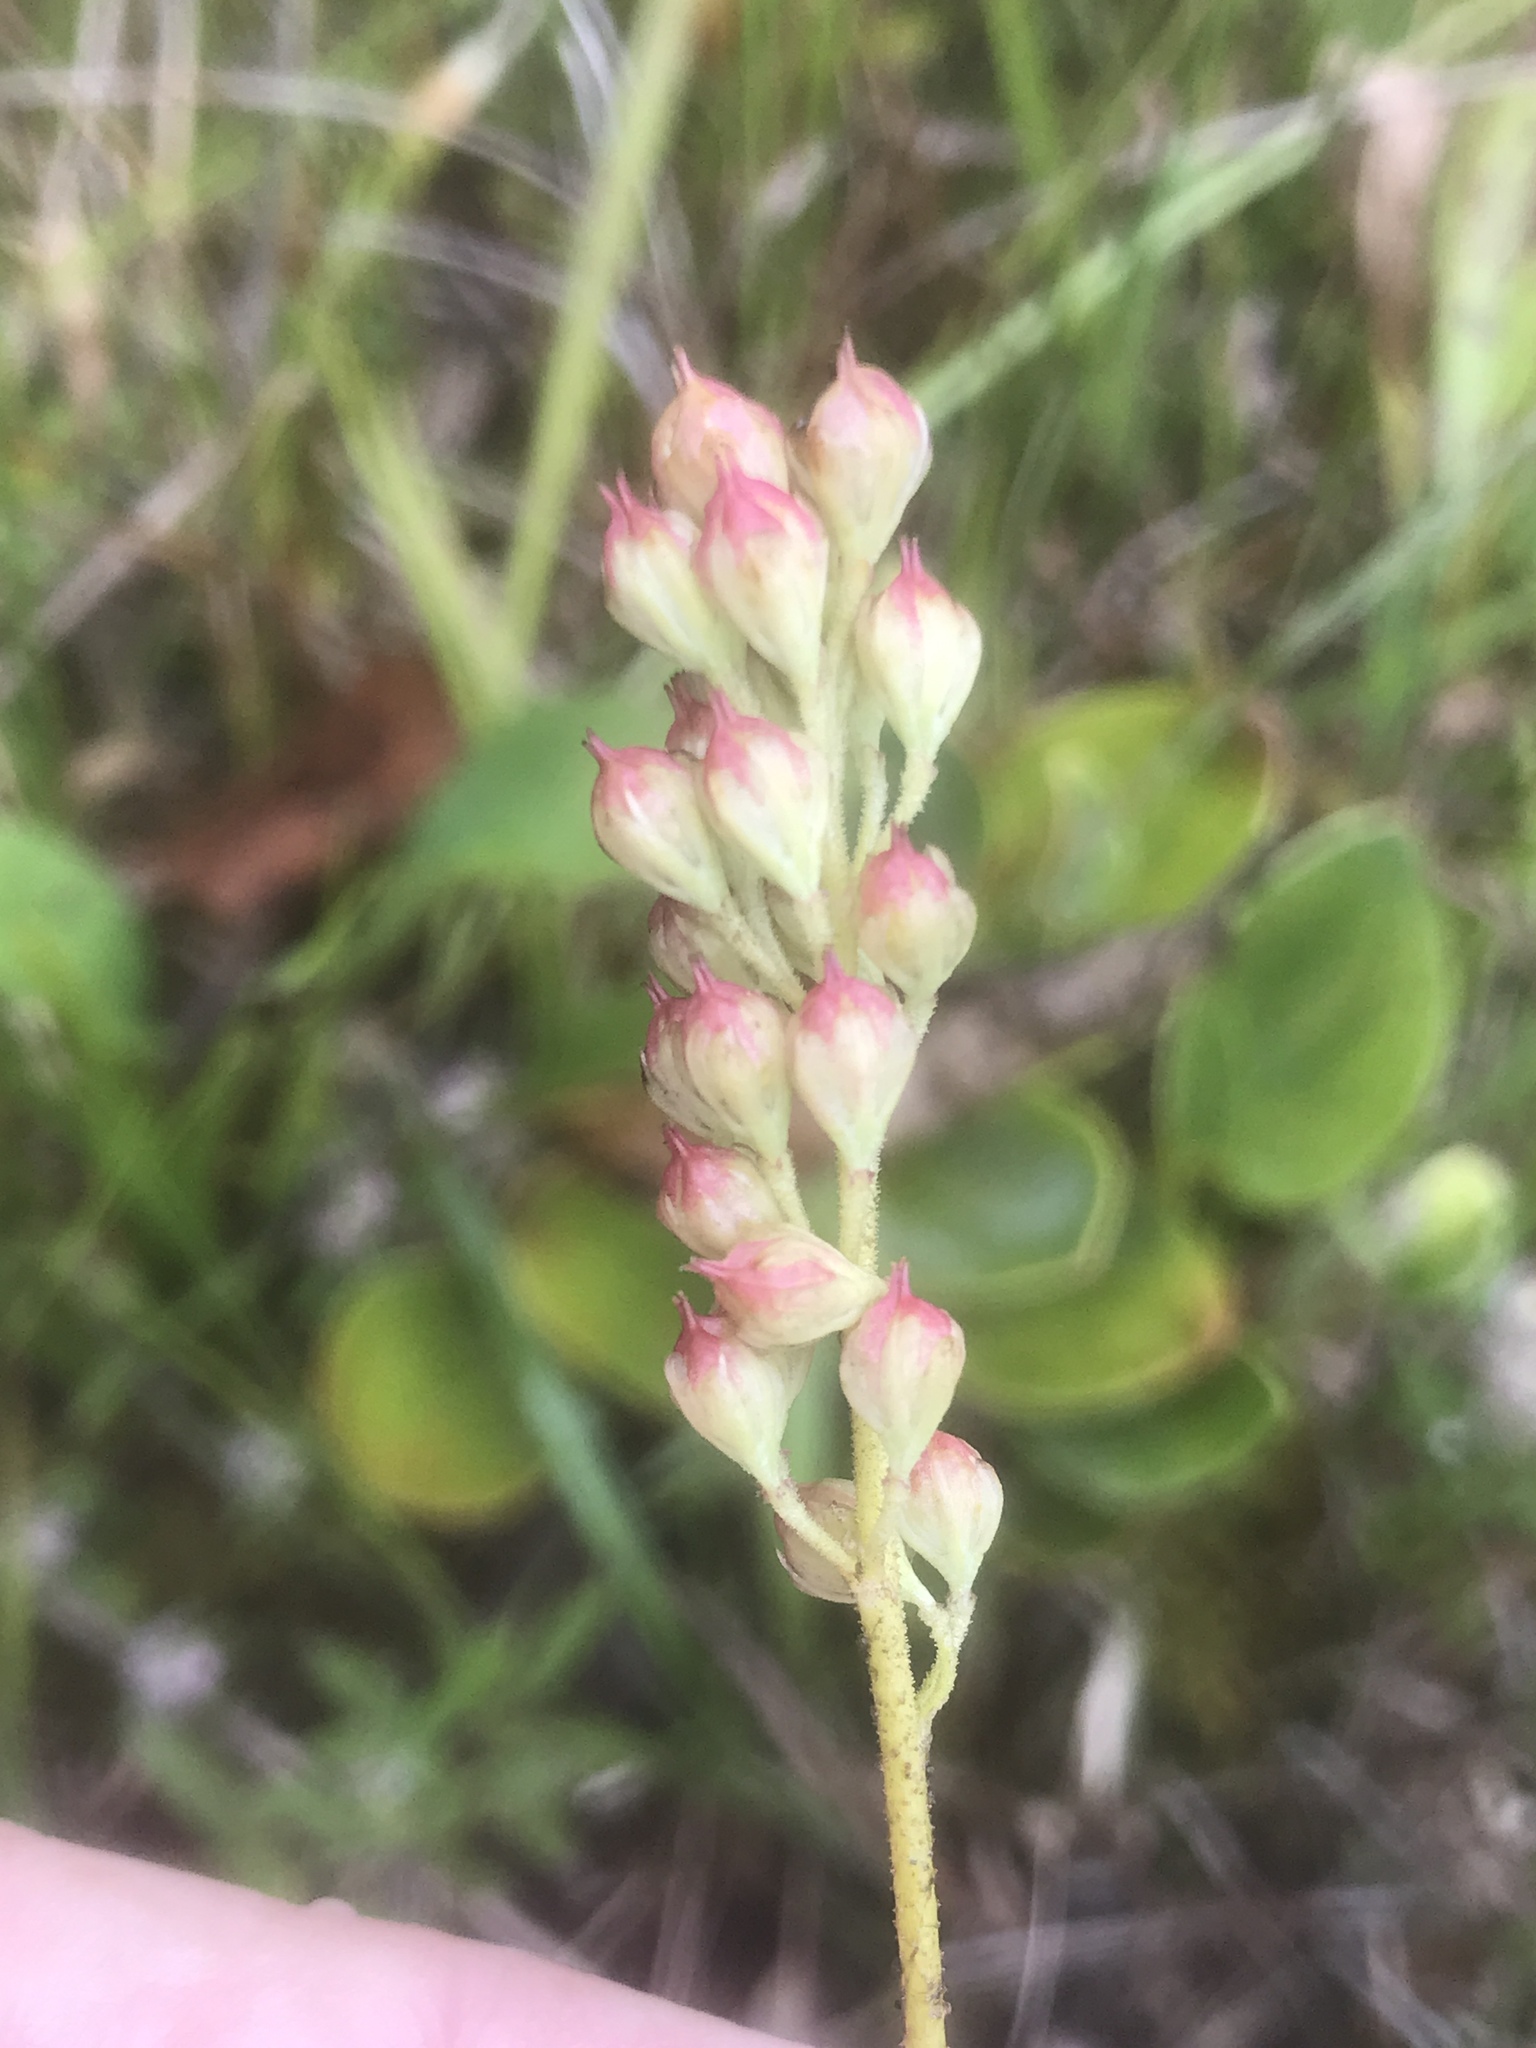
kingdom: Plantae
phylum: Tracheophyta
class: Liliopsida
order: Alismatales
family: Tofieldiaceae
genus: Triantha
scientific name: Triantha glutinosa
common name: Glutinous tofieldia
